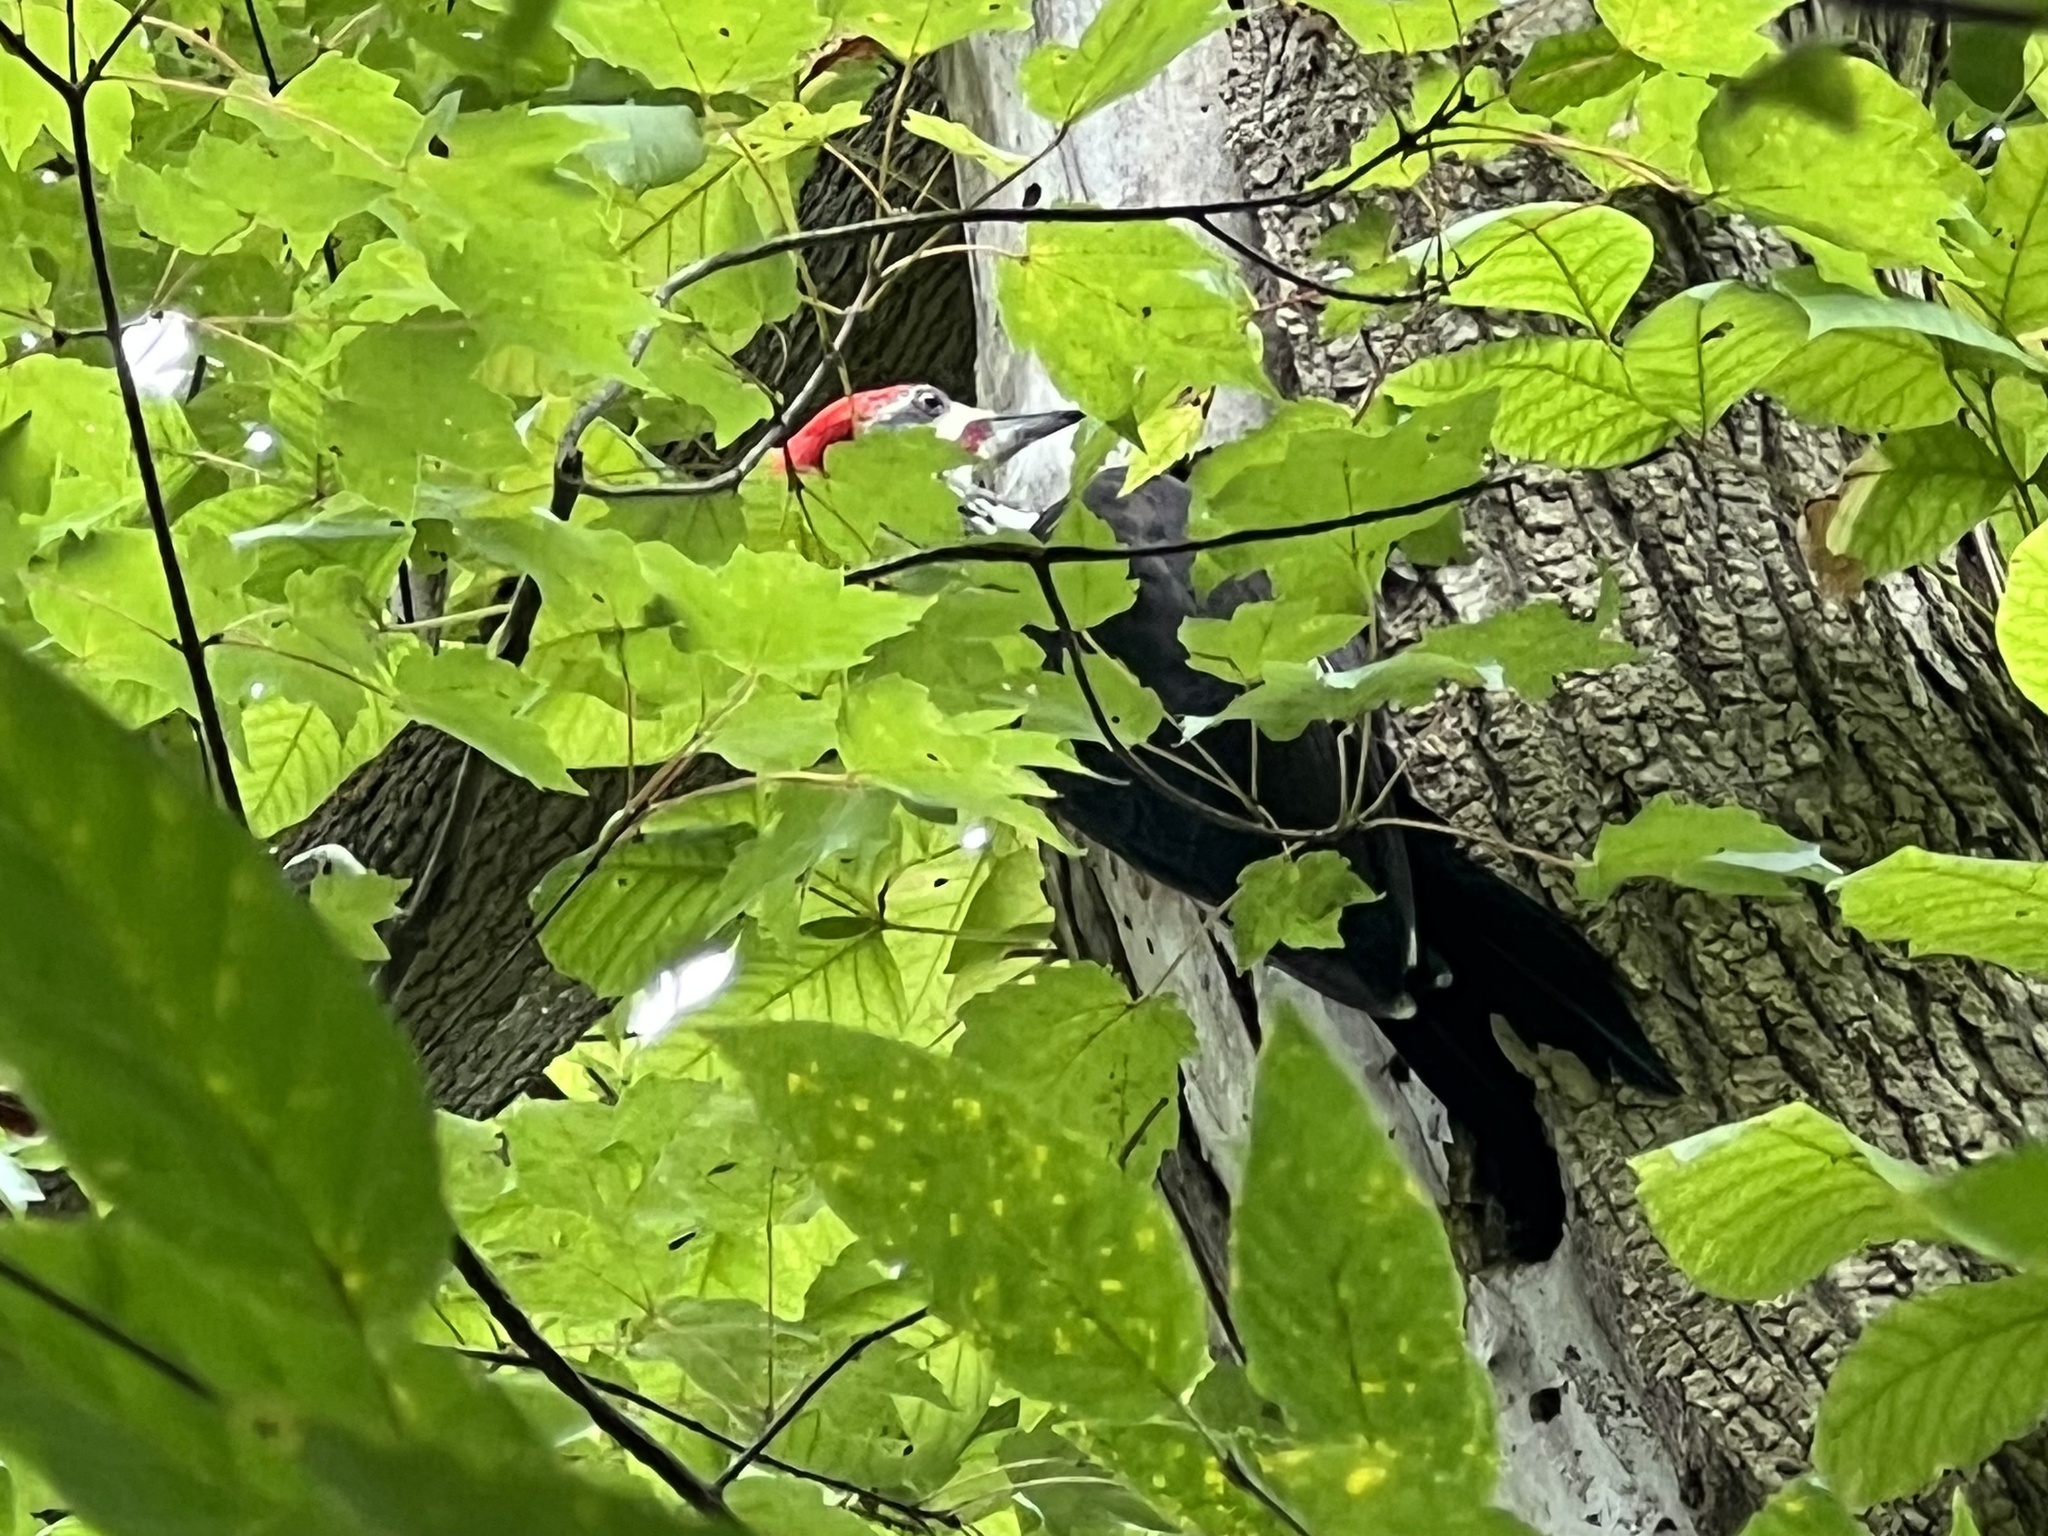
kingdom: Animalia
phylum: Chordata
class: Aves
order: Piciformes
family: Picidae
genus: Dryocopus
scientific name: Dryocopus pileatus
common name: Pileated woodpecker
